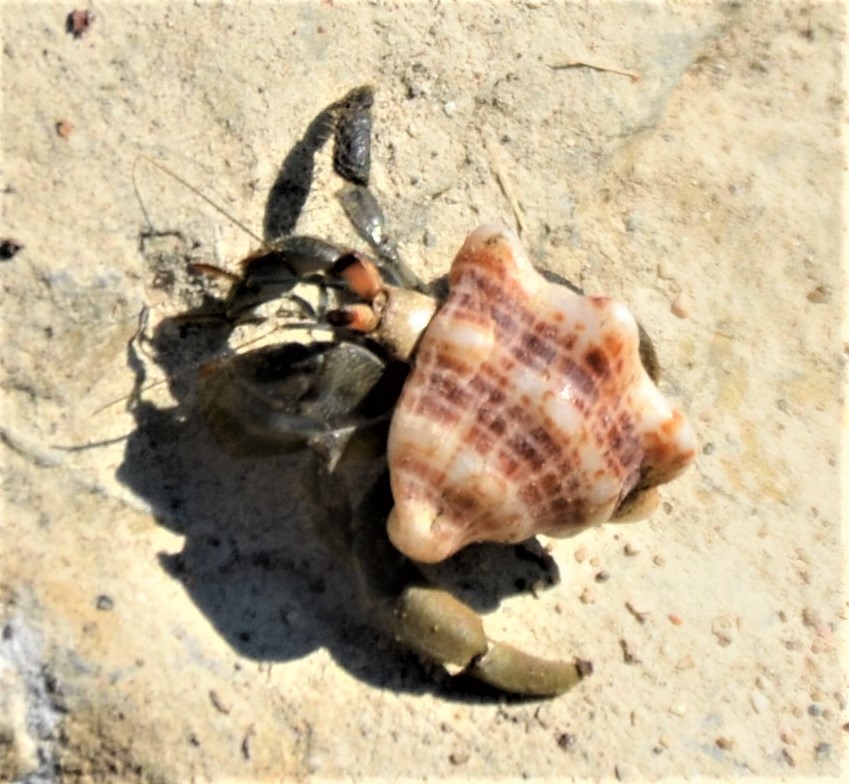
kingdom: Animalia
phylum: Arthropoda
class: Malacostraca
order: Decapoda
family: Coenobitidae
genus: Coenobita
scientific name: Coenobita compressus
